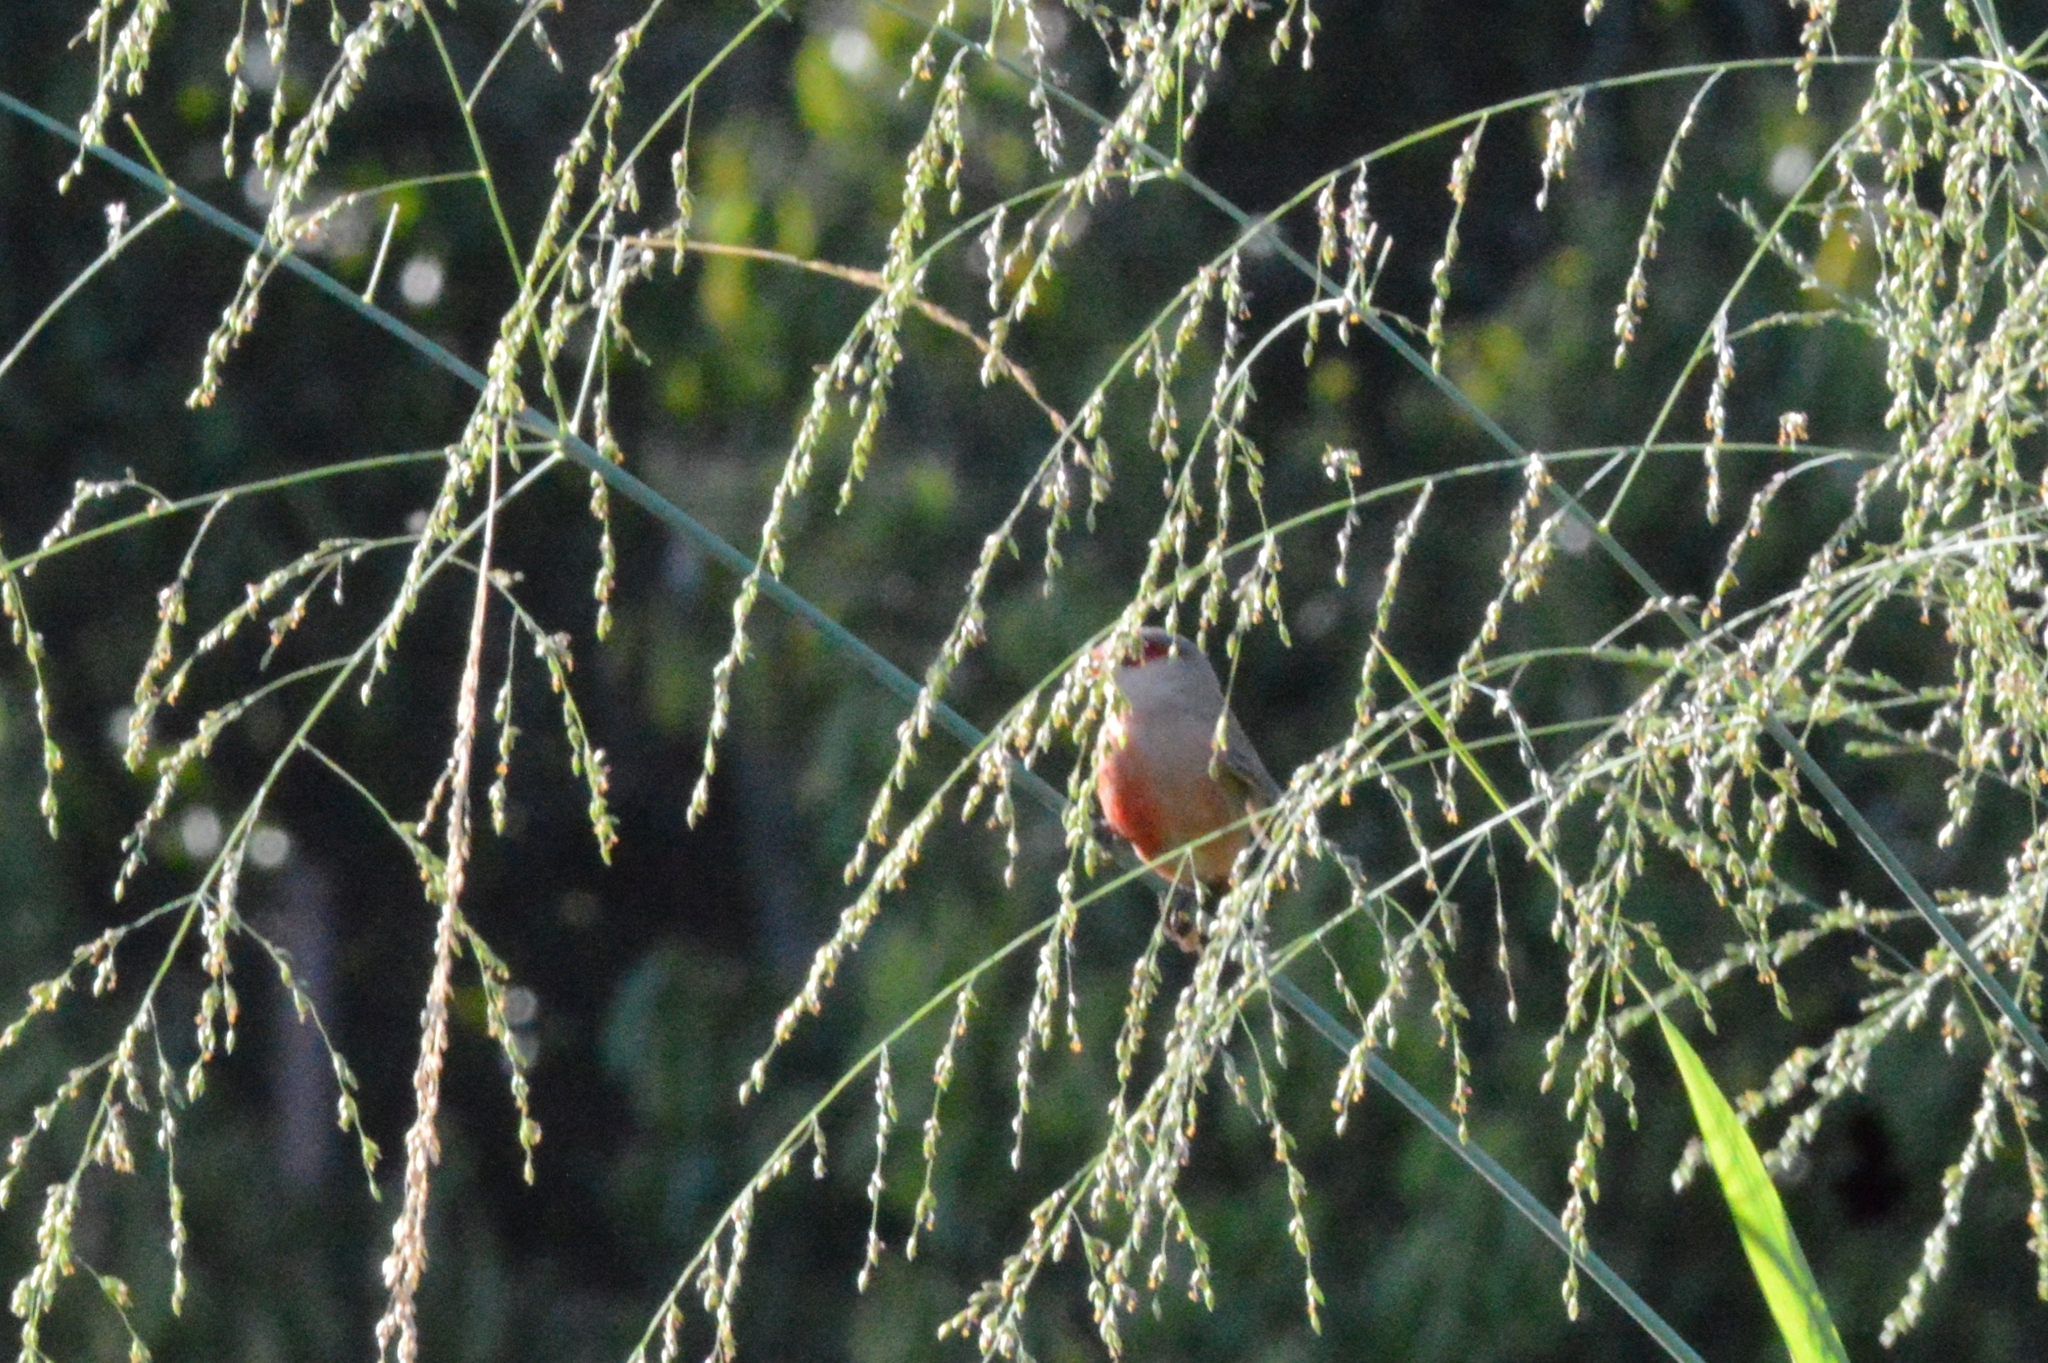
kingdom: Animalia
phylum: Chordata
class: Aves
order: Passeriformes
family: Estrildidae
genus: Estrilda
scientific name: Estrilda astrild
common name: Common waxbill
